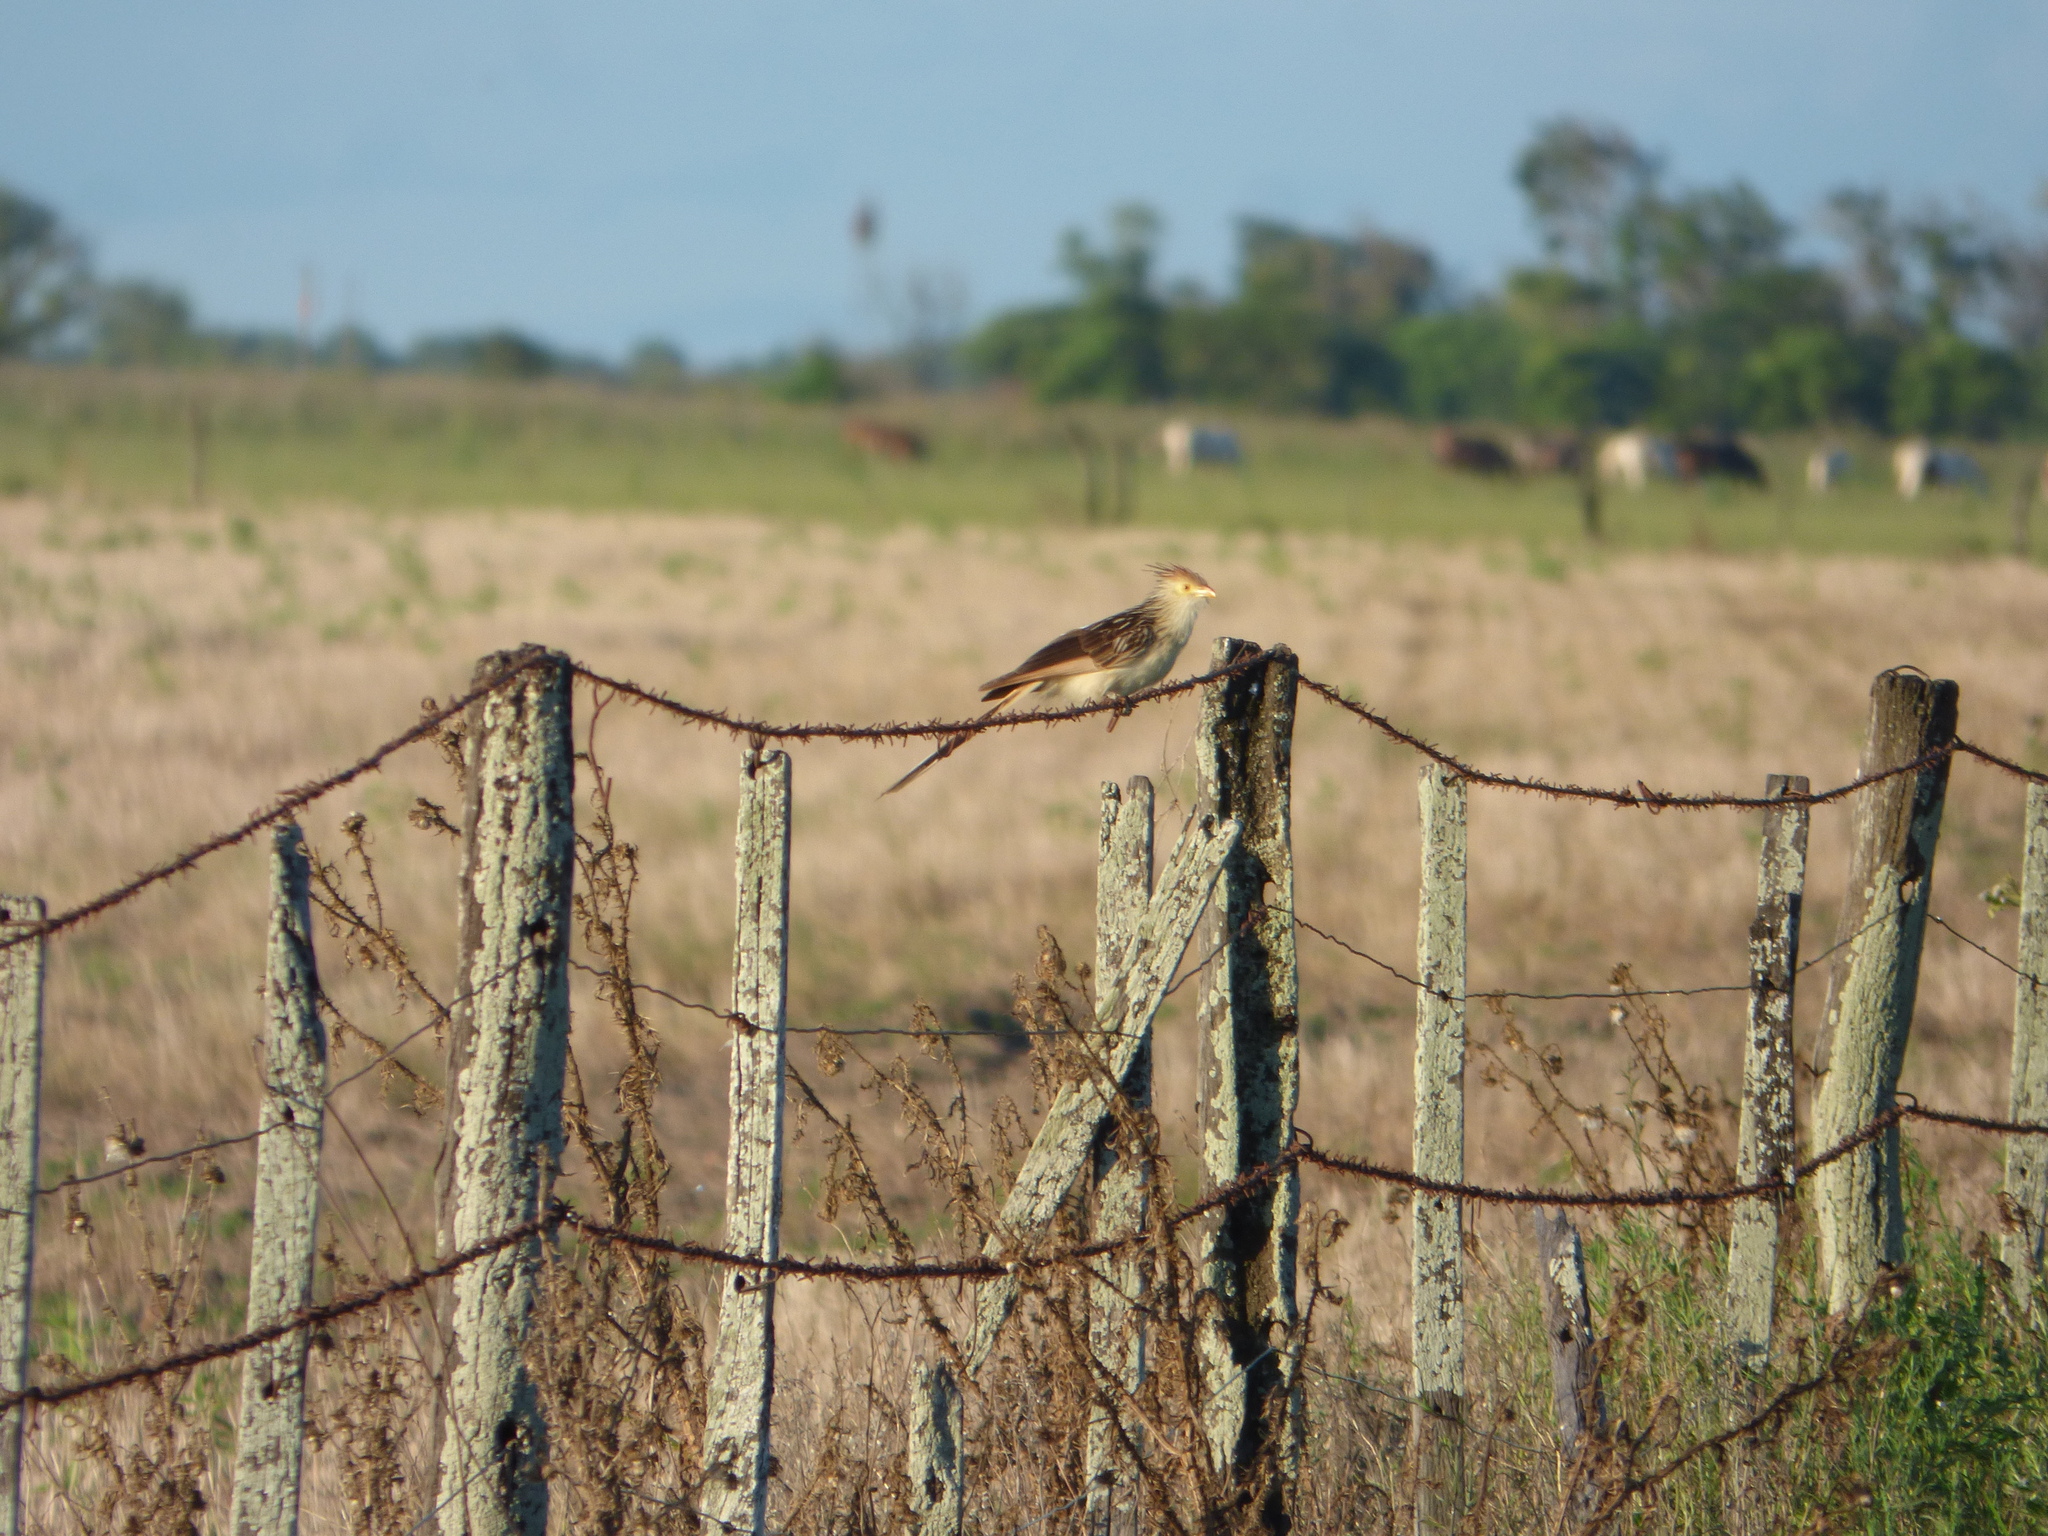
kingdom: Animalia
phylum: Chordata
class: Aves
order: Cuculiformes
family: Cuculidae
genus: Guira
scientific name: Guira guira
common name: Guira cuckoo
